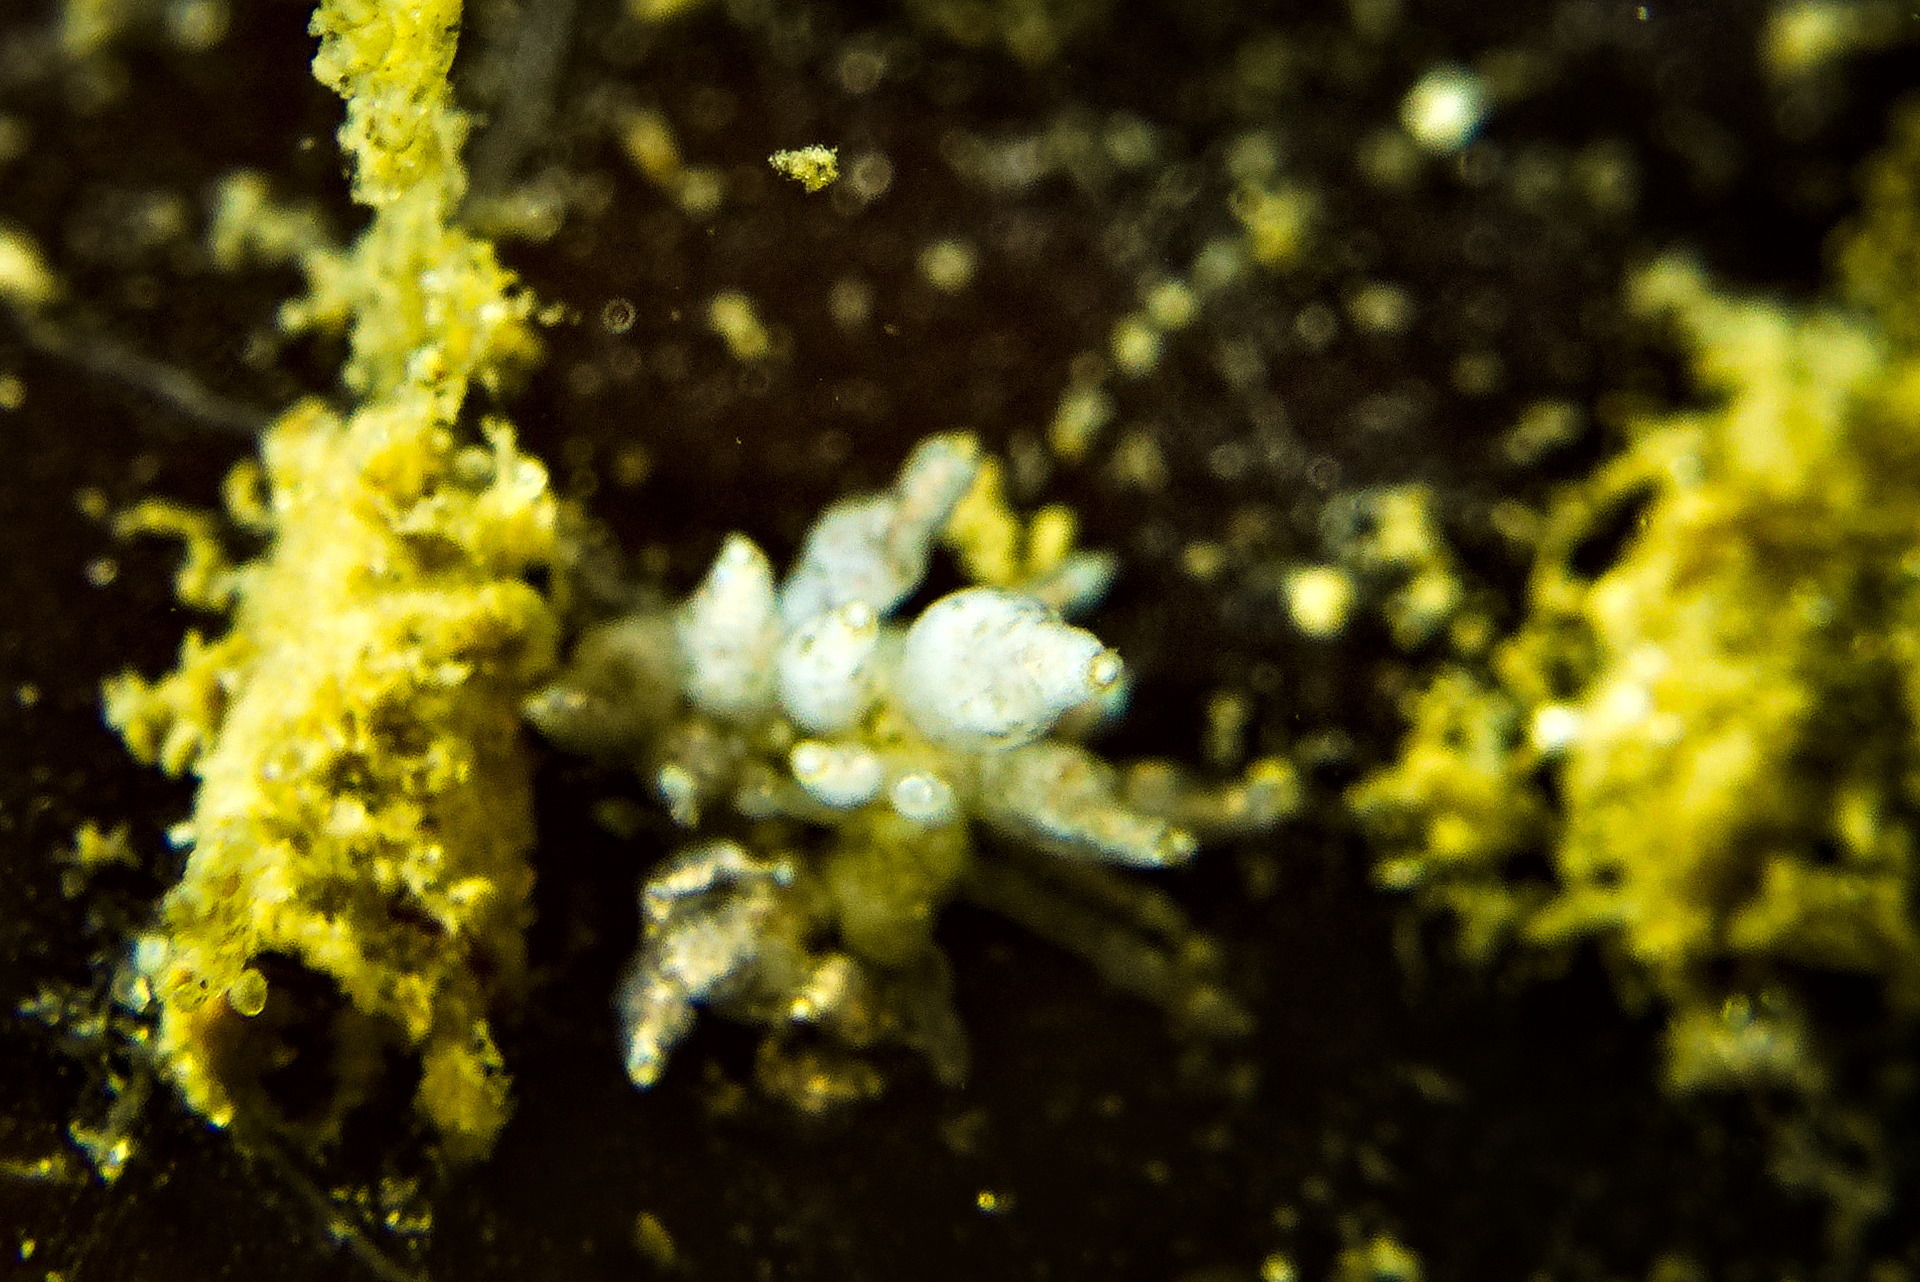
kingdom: Animalia
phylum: Mollusca
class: Gastropoda
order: Nudibranchia
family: Eubranchidae
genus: Eubranchus
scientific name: Eubranchus exiguus
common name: Balloon aeolis
